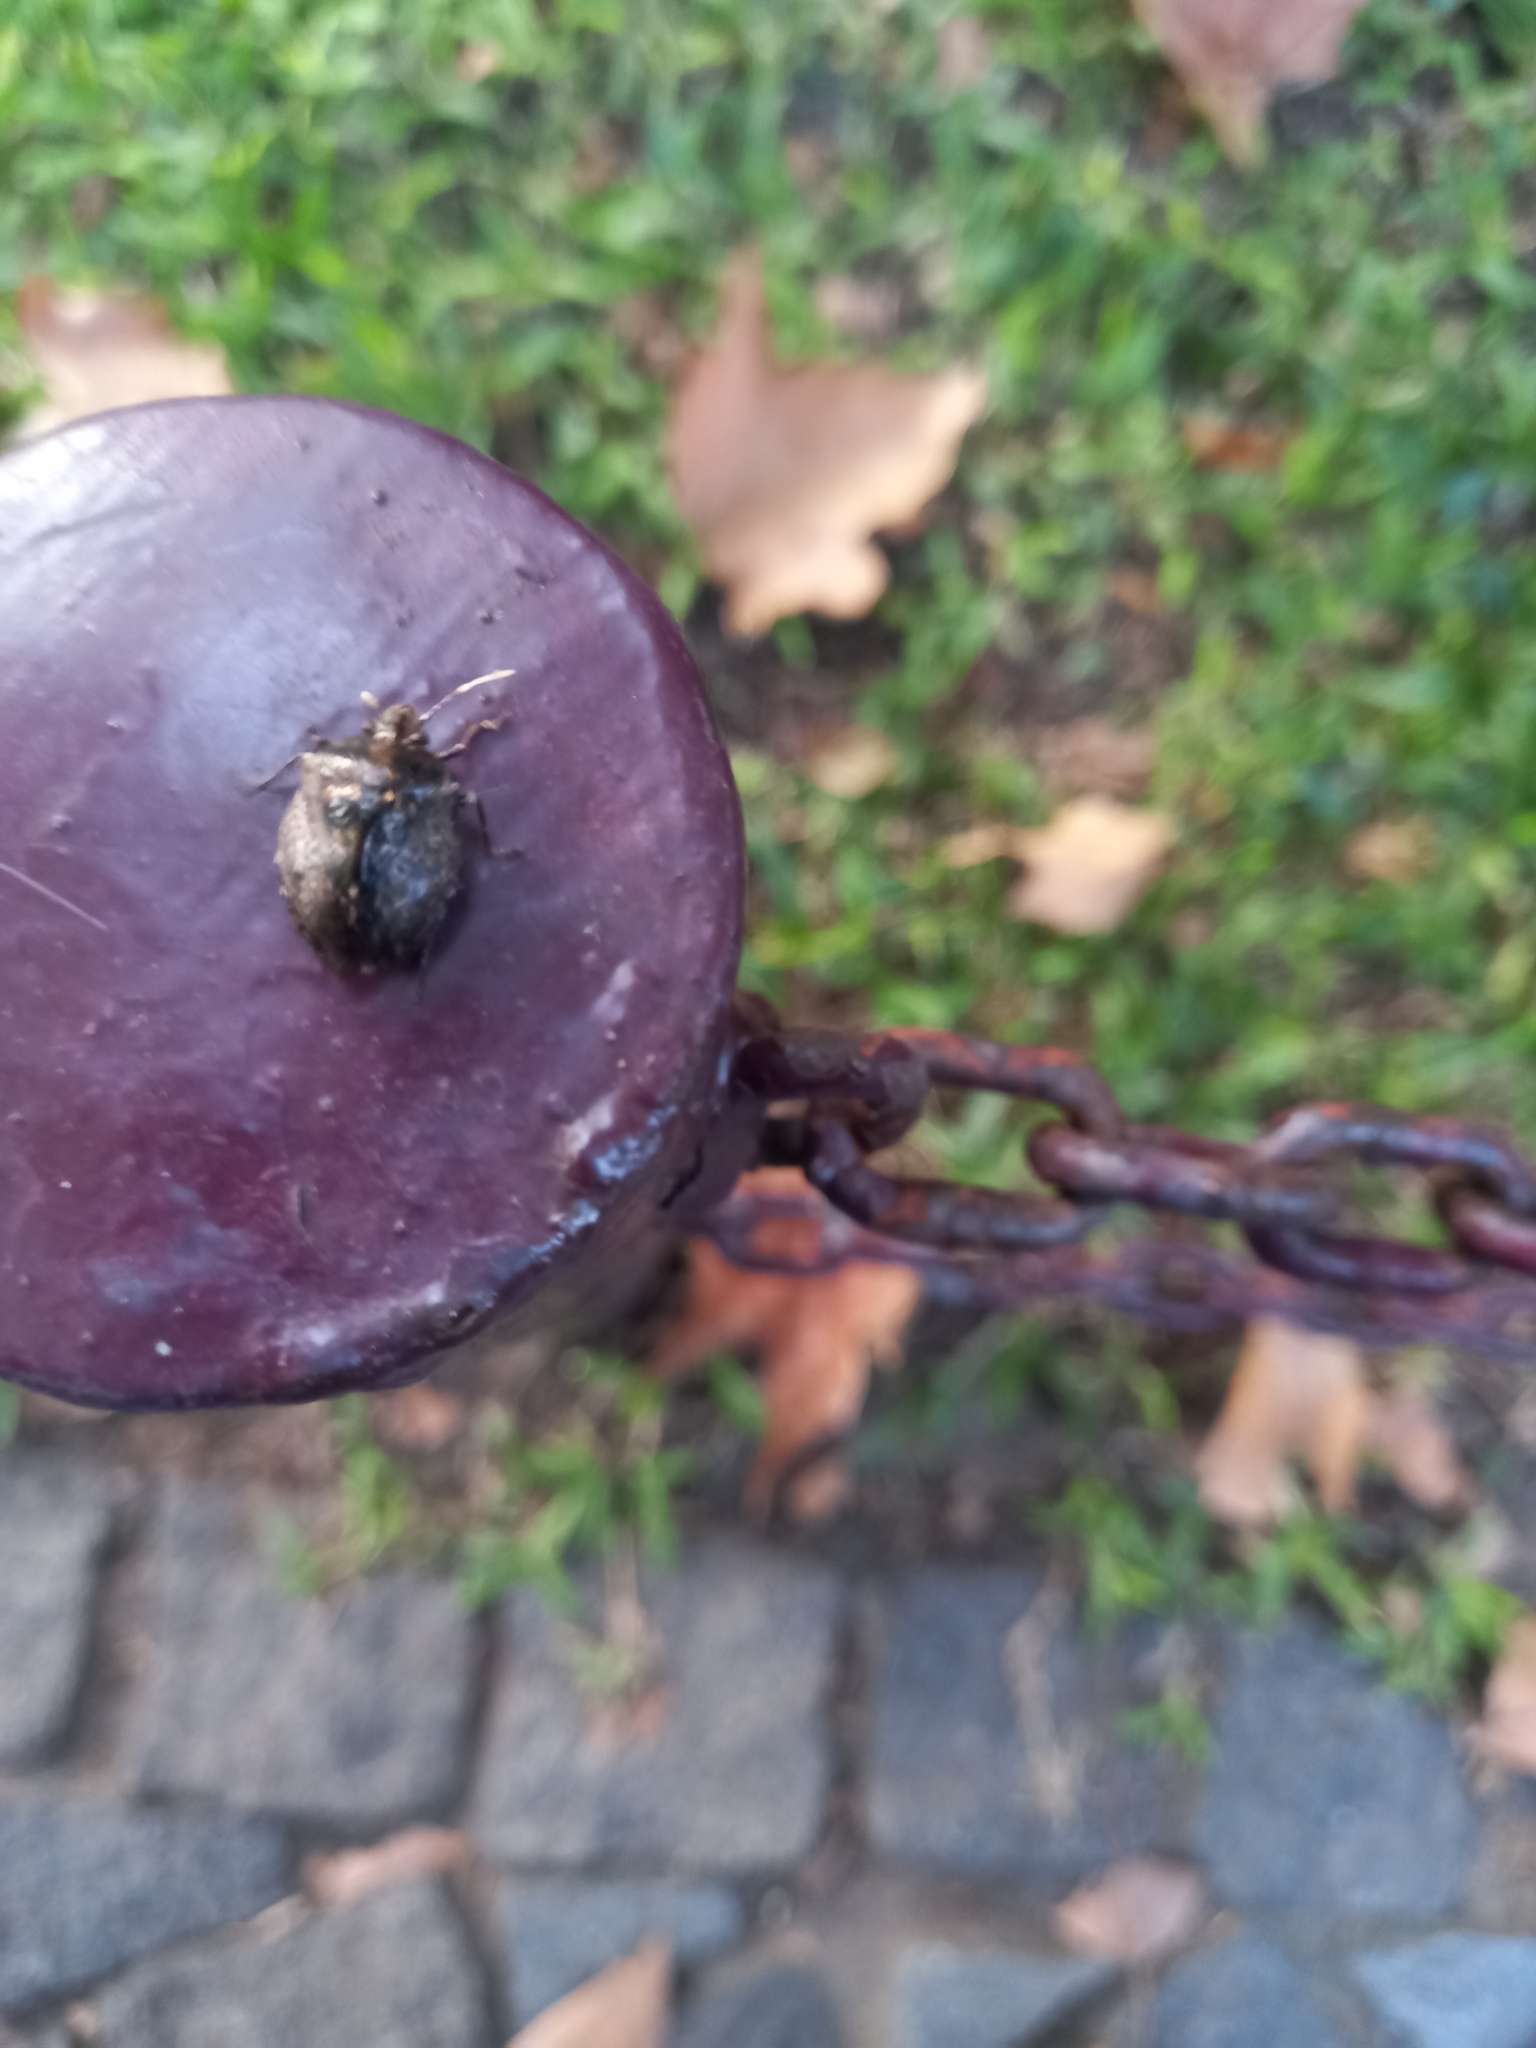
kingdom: Animalia
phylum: Arthropoda
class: Insecta
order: Hemiptera
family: Pentatomidae
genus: Antiteuchus
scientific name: Antiteuchus mixtus
